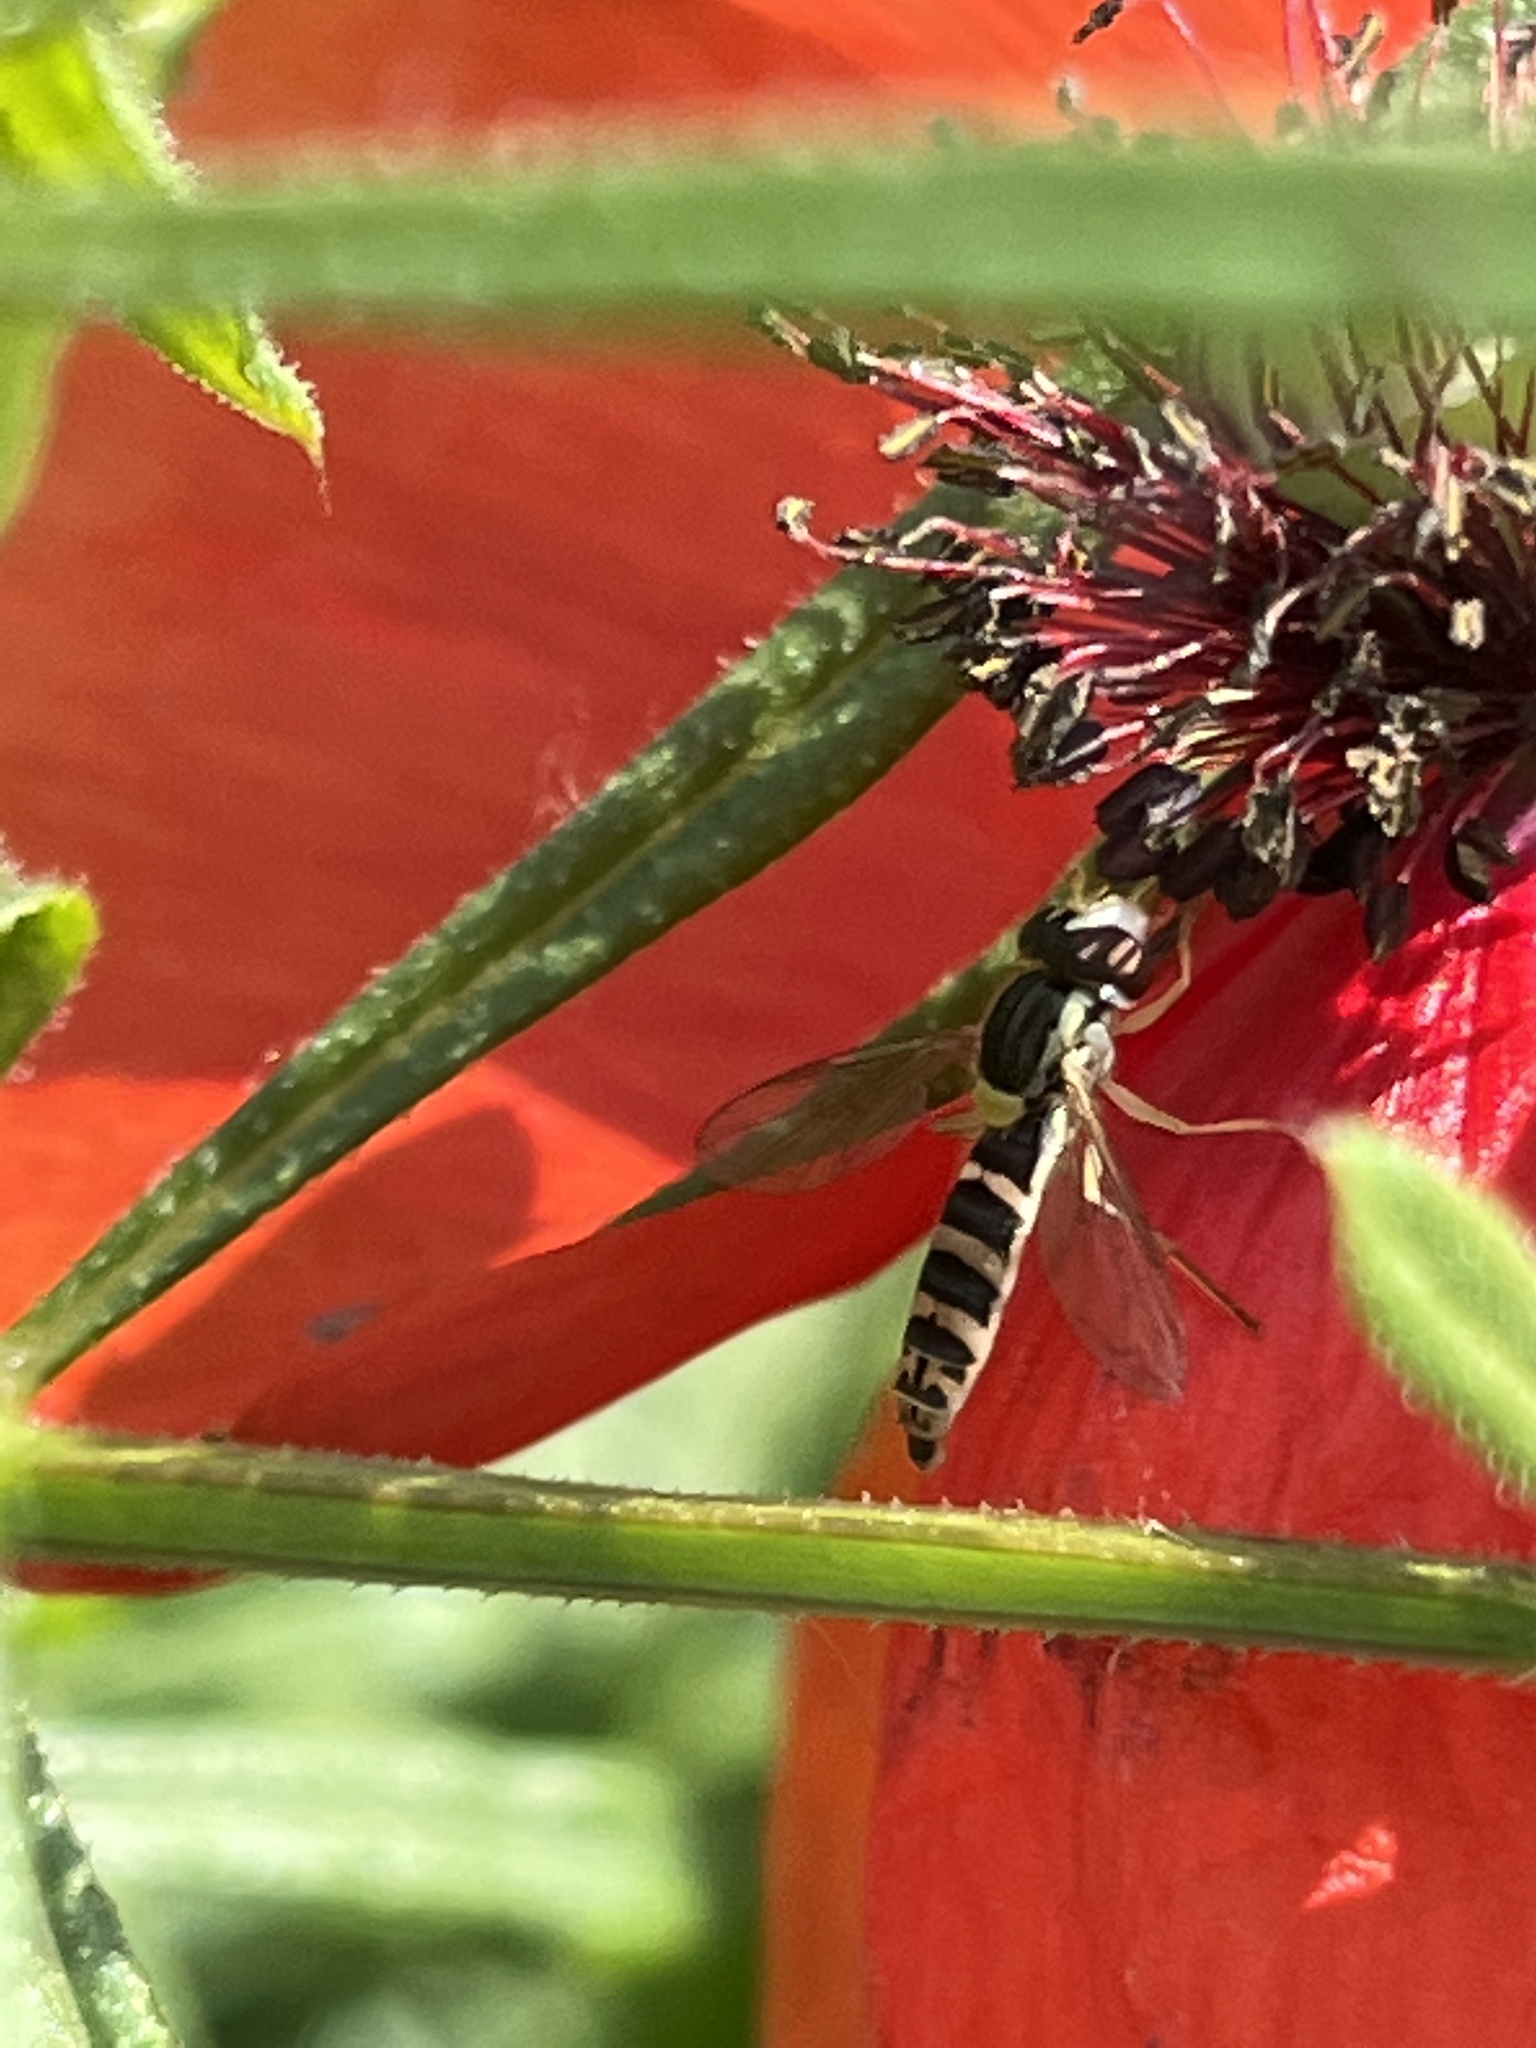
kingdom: Animalia
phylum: Arthropoda
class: Insecta
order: Diptera
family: Syrphidae
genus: Sphaerophoria
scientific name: Sphaerophoria
